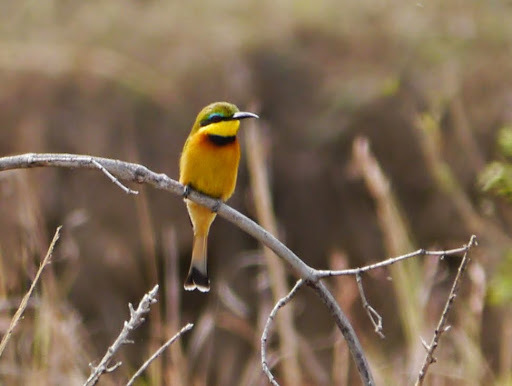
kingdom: Animalia
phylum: Chordata
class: Aves
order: Coraciiformes
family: Meropidae
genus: Merops
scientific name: Merops pusillus
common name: Little bee-eater
